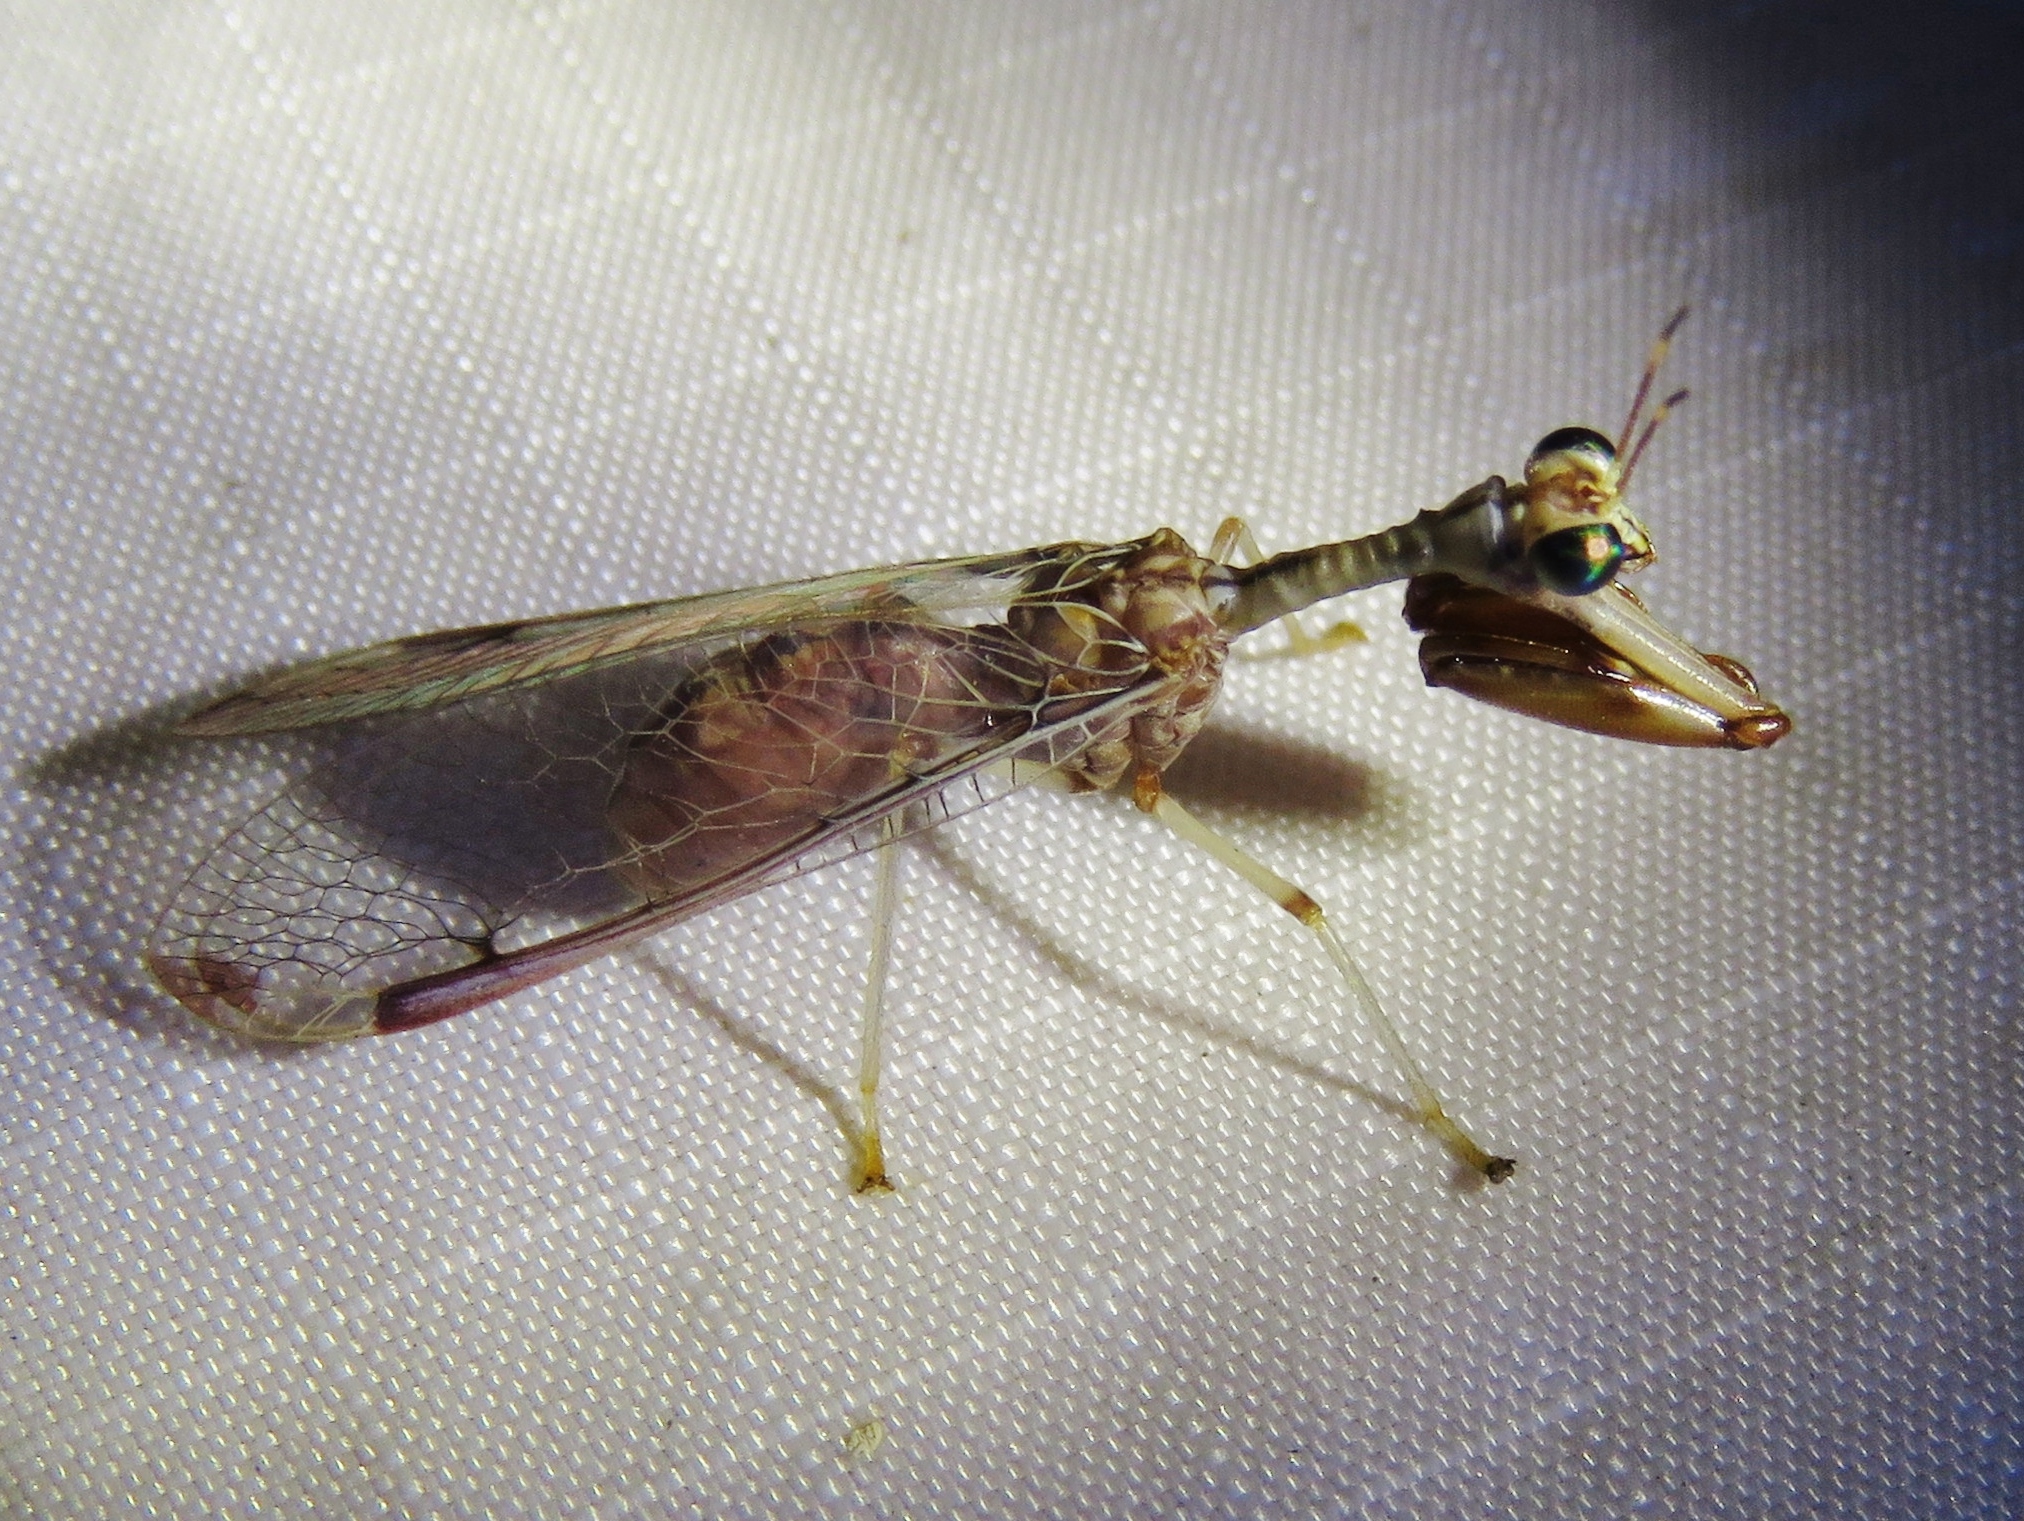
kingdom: Animalia
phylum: Arthropoda
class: Insecta
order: Neuroptera
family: Mantispidae
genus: Dicromantispa
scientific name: Dicromantispa interrupta
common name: Four-spotted mantidfly
